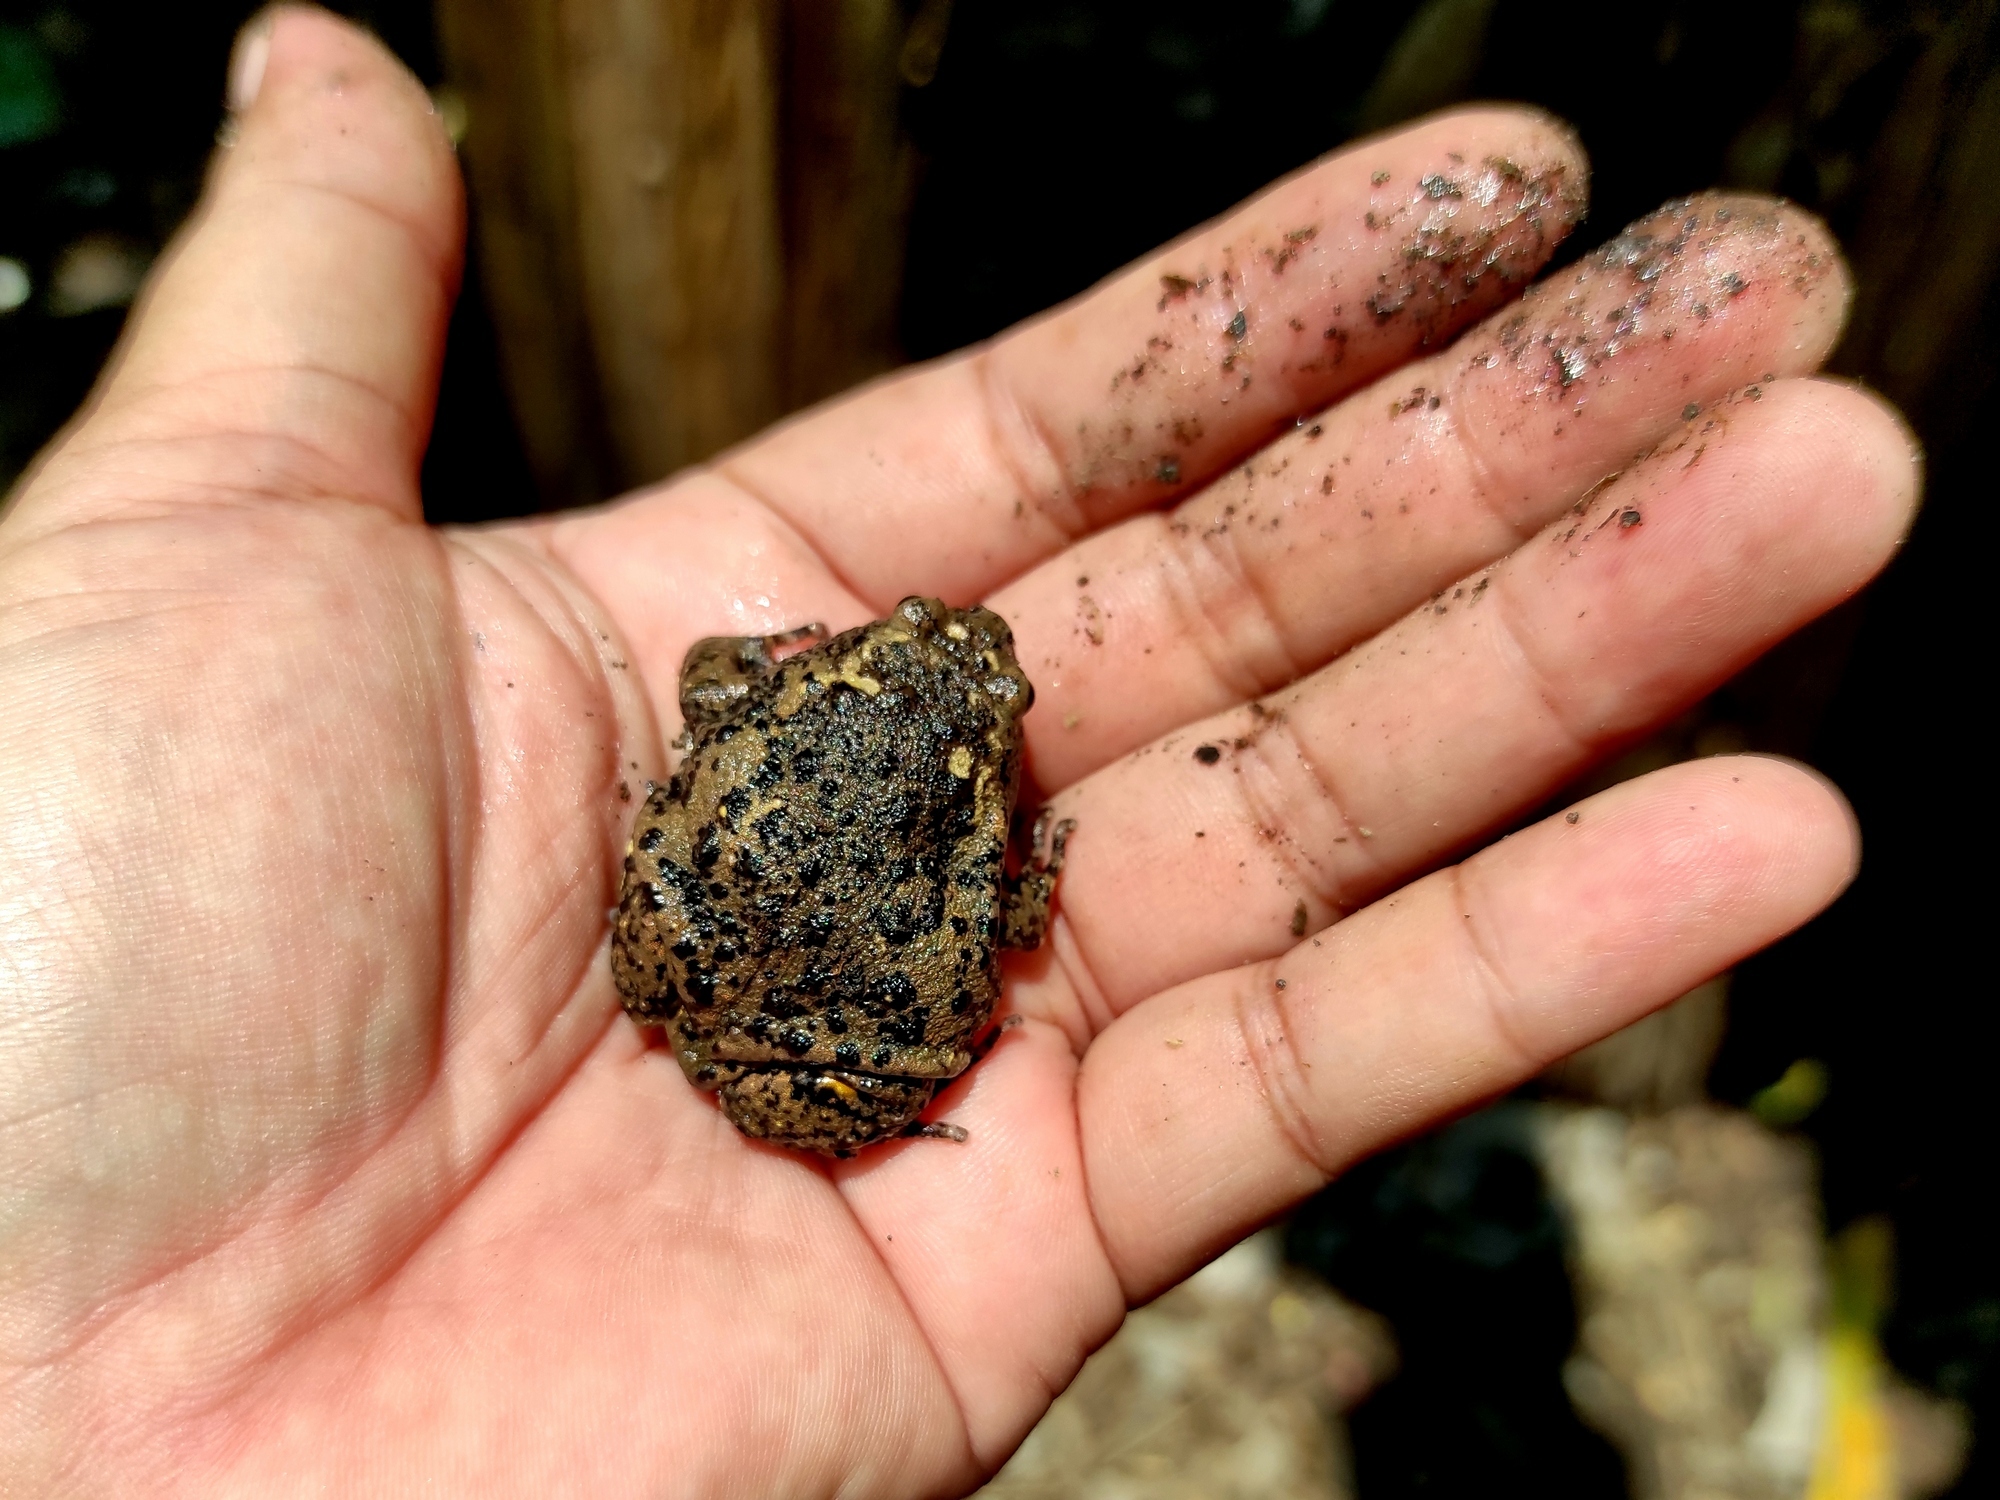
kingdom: Animalia
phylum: Chordata
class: Amphibia
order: Anura
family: Microhylidae
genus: Kaloula
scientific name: Kaloula baleata
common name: Brown,javanese bullfrog
